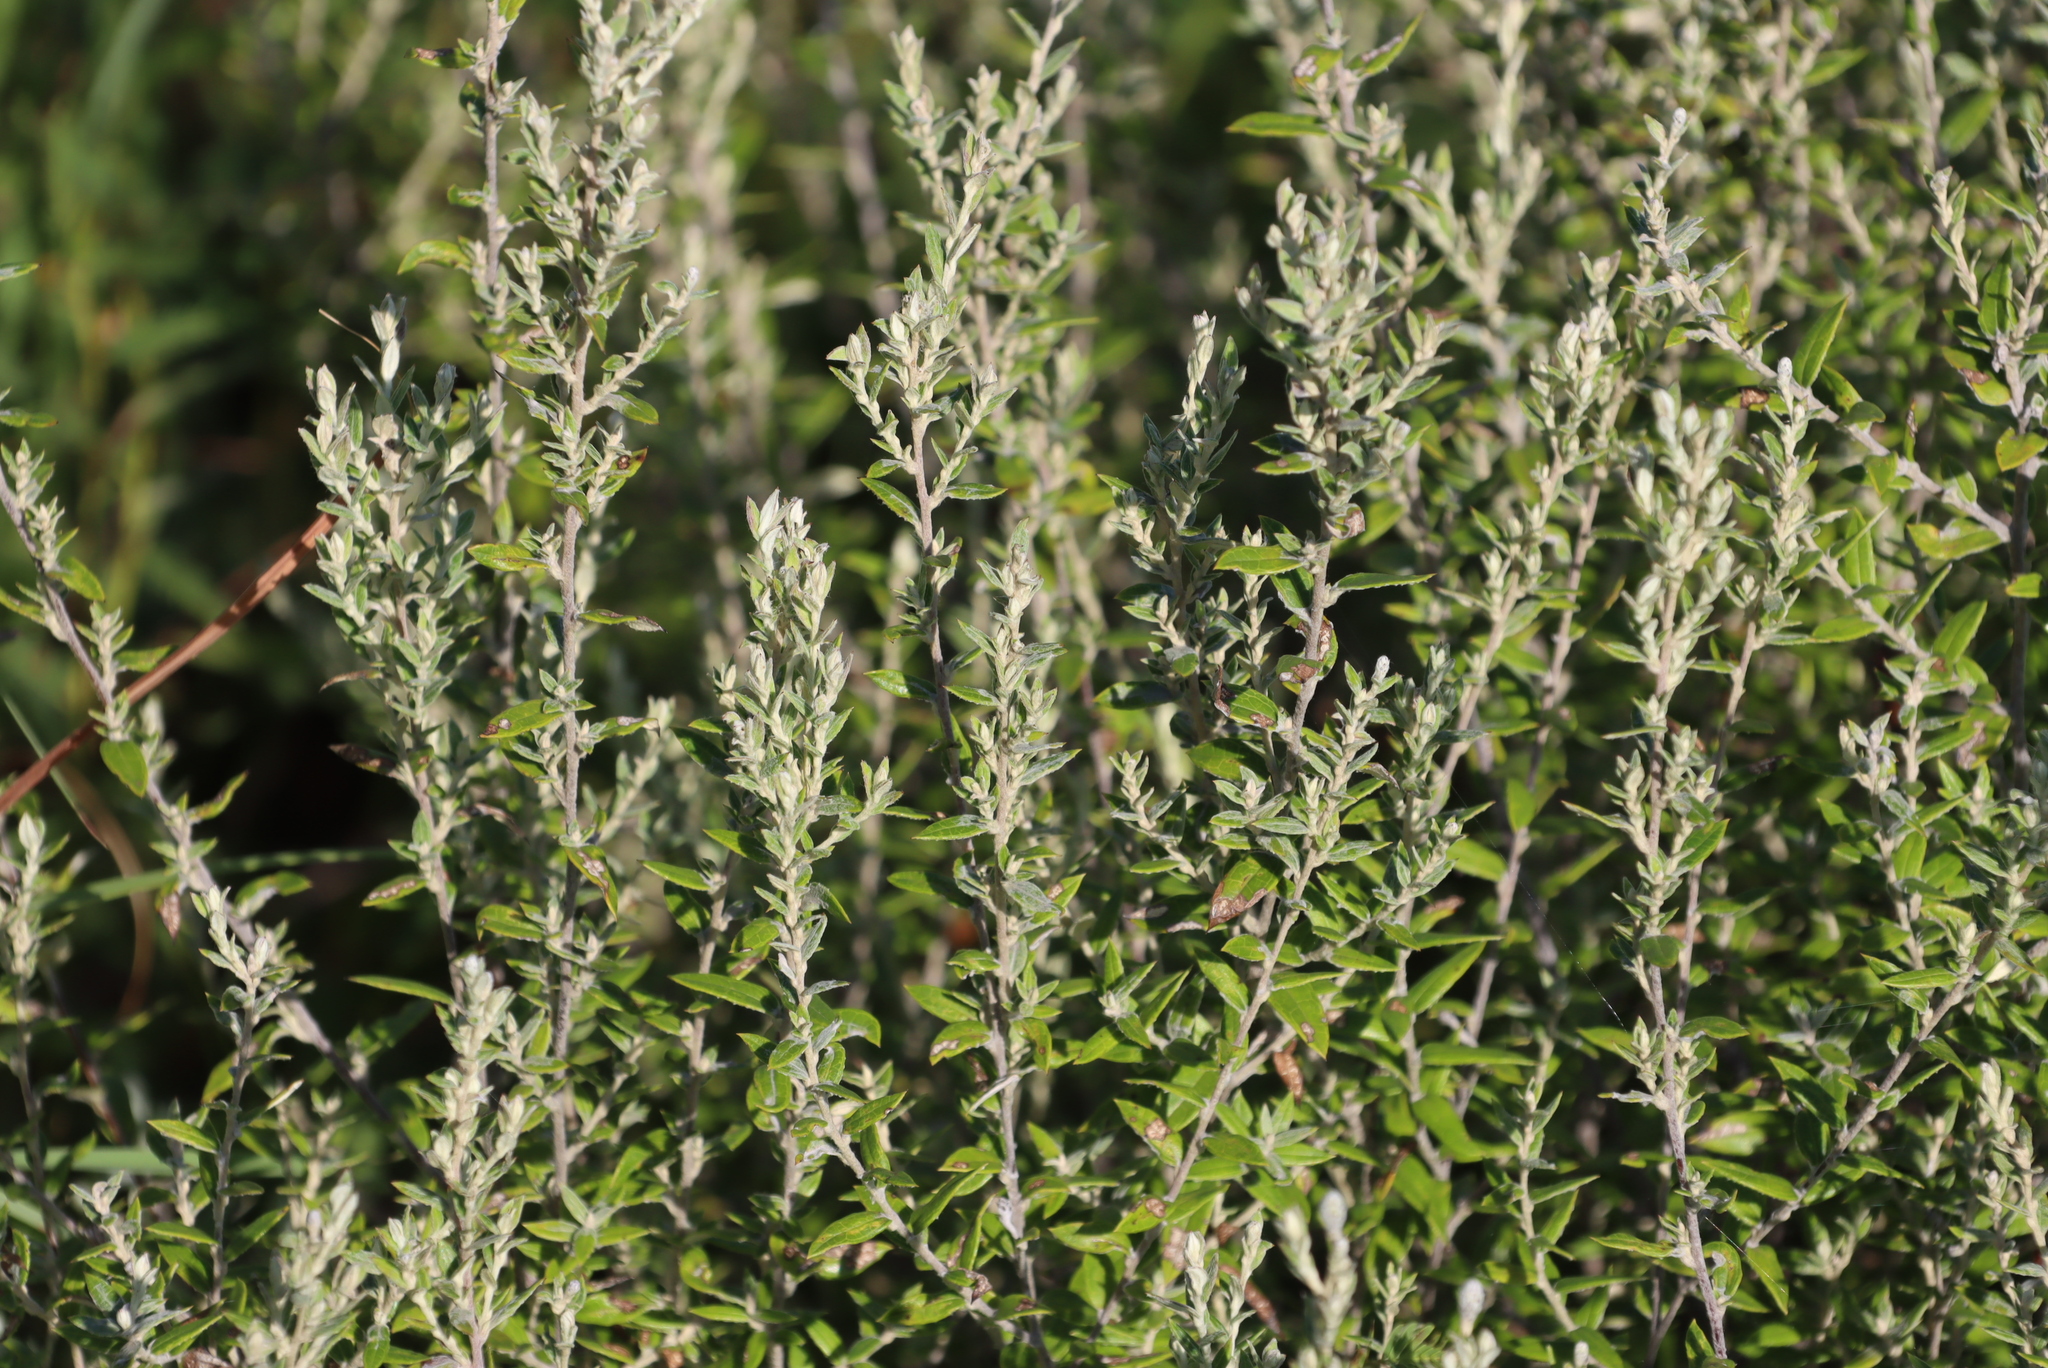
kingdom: Plantae
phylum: Tracheophyta
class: Magnoliopsida
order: Asterales
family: Asteraceae
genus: Athrixia
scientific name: Athrixia phylicoides
